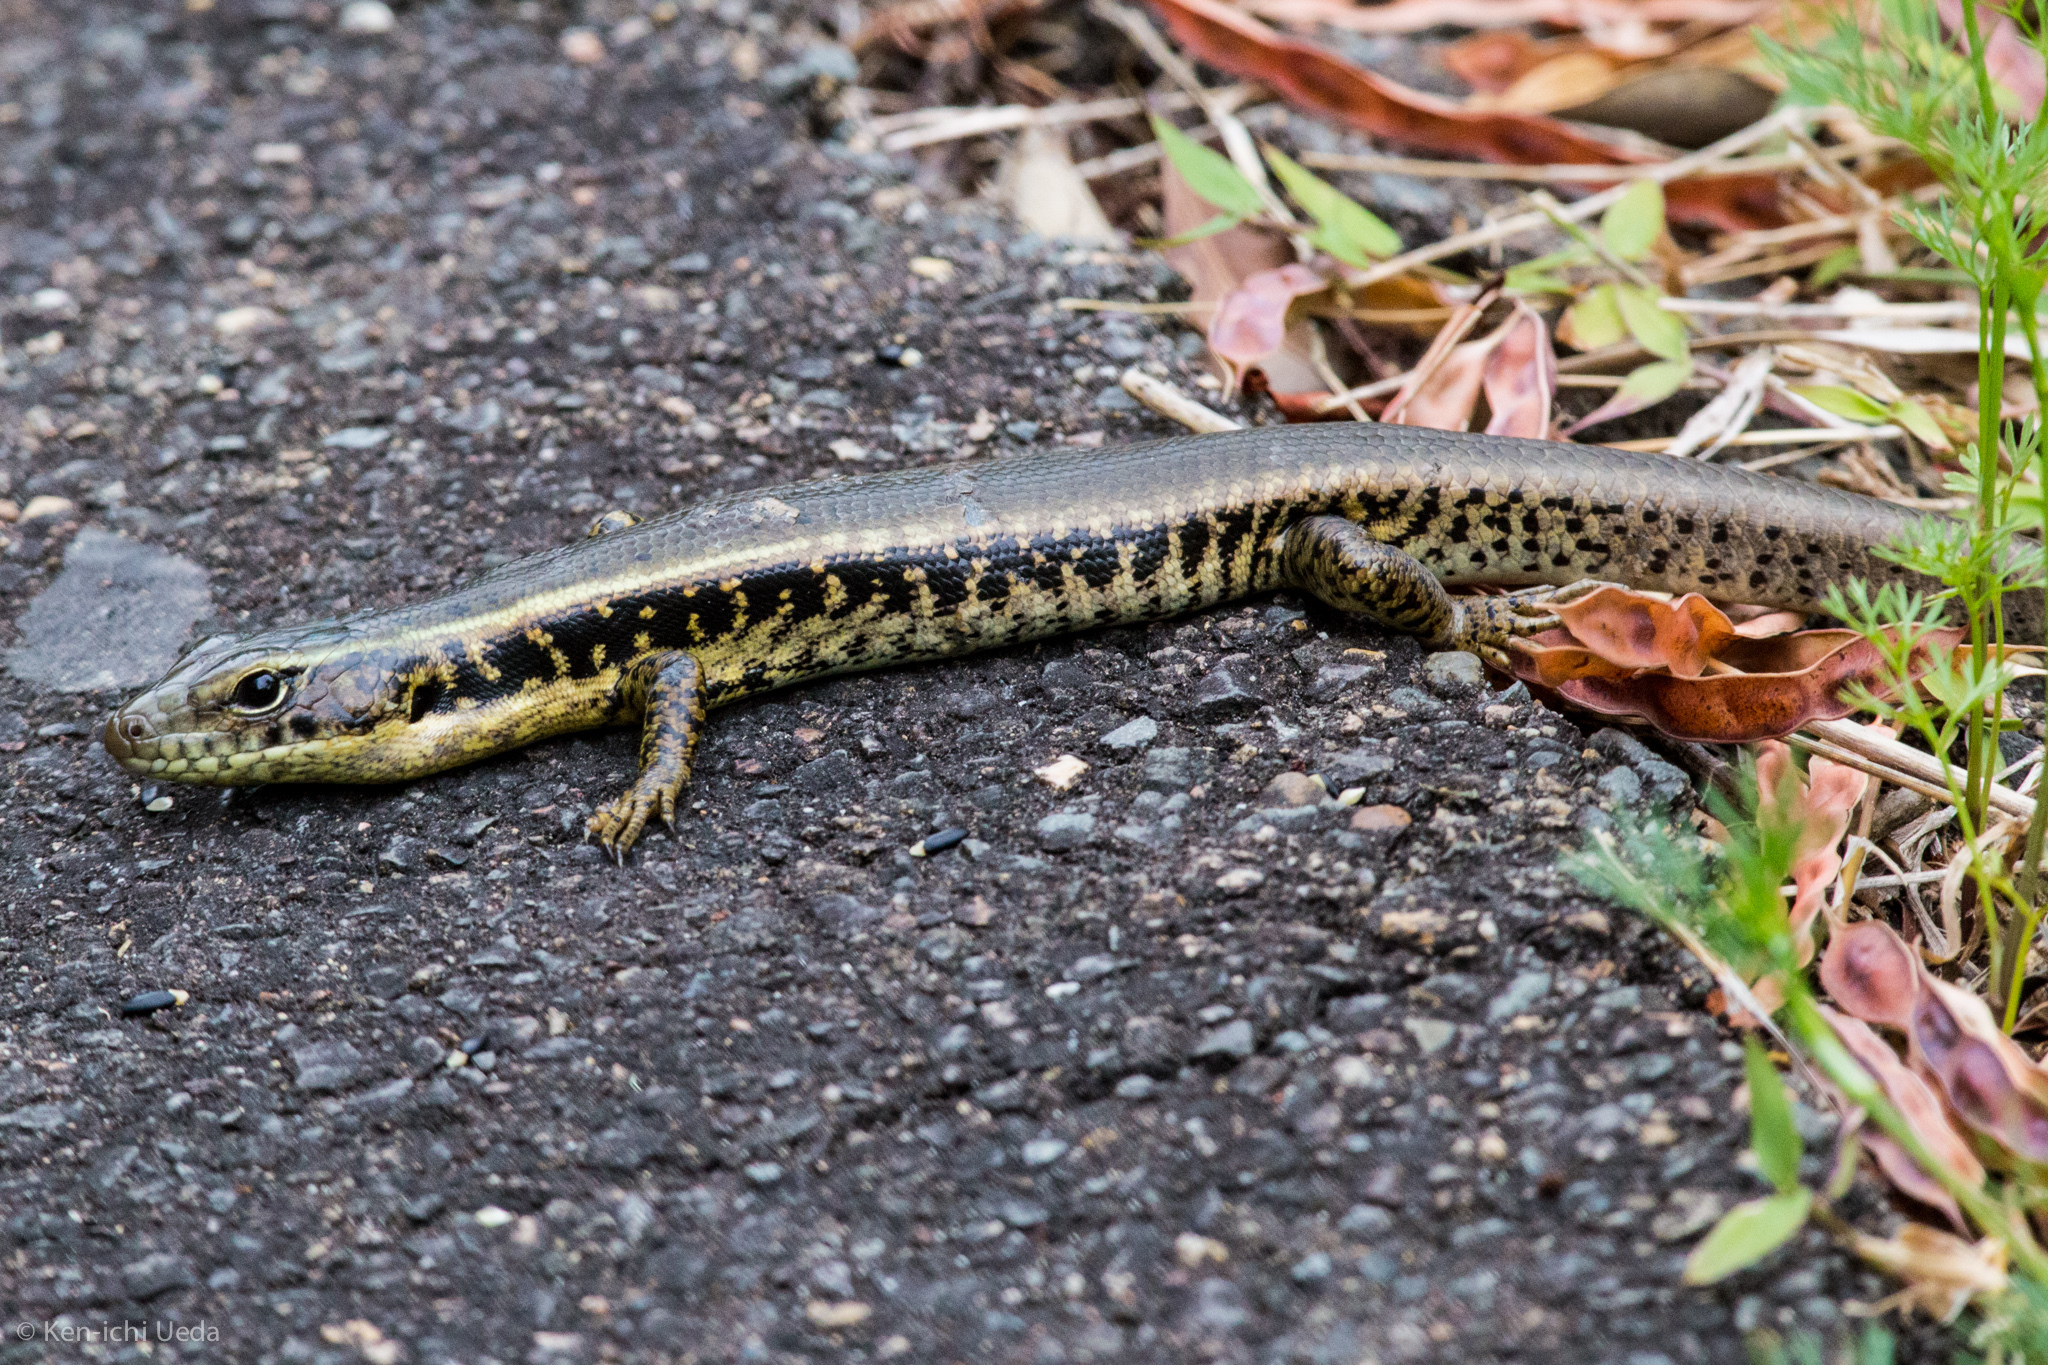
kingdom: Animalia
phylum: Chordata
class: Squamata
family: Scincidae
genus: Eulamprus
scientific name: Eulamprus quoyii
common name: Eastern water skink
